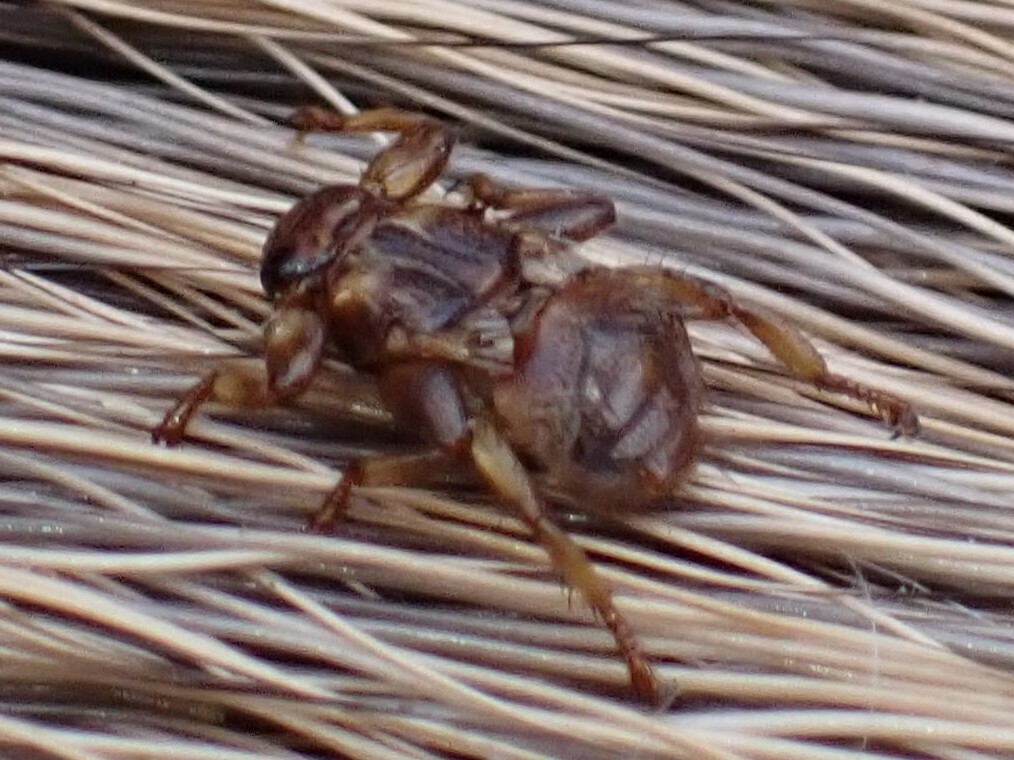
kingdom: Animalia
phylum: Arthropoda
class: Insecta
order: Diptera
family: Hippoboscidae
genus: Lipoptena
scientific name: Lipoptena cervi
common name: Deer ked
